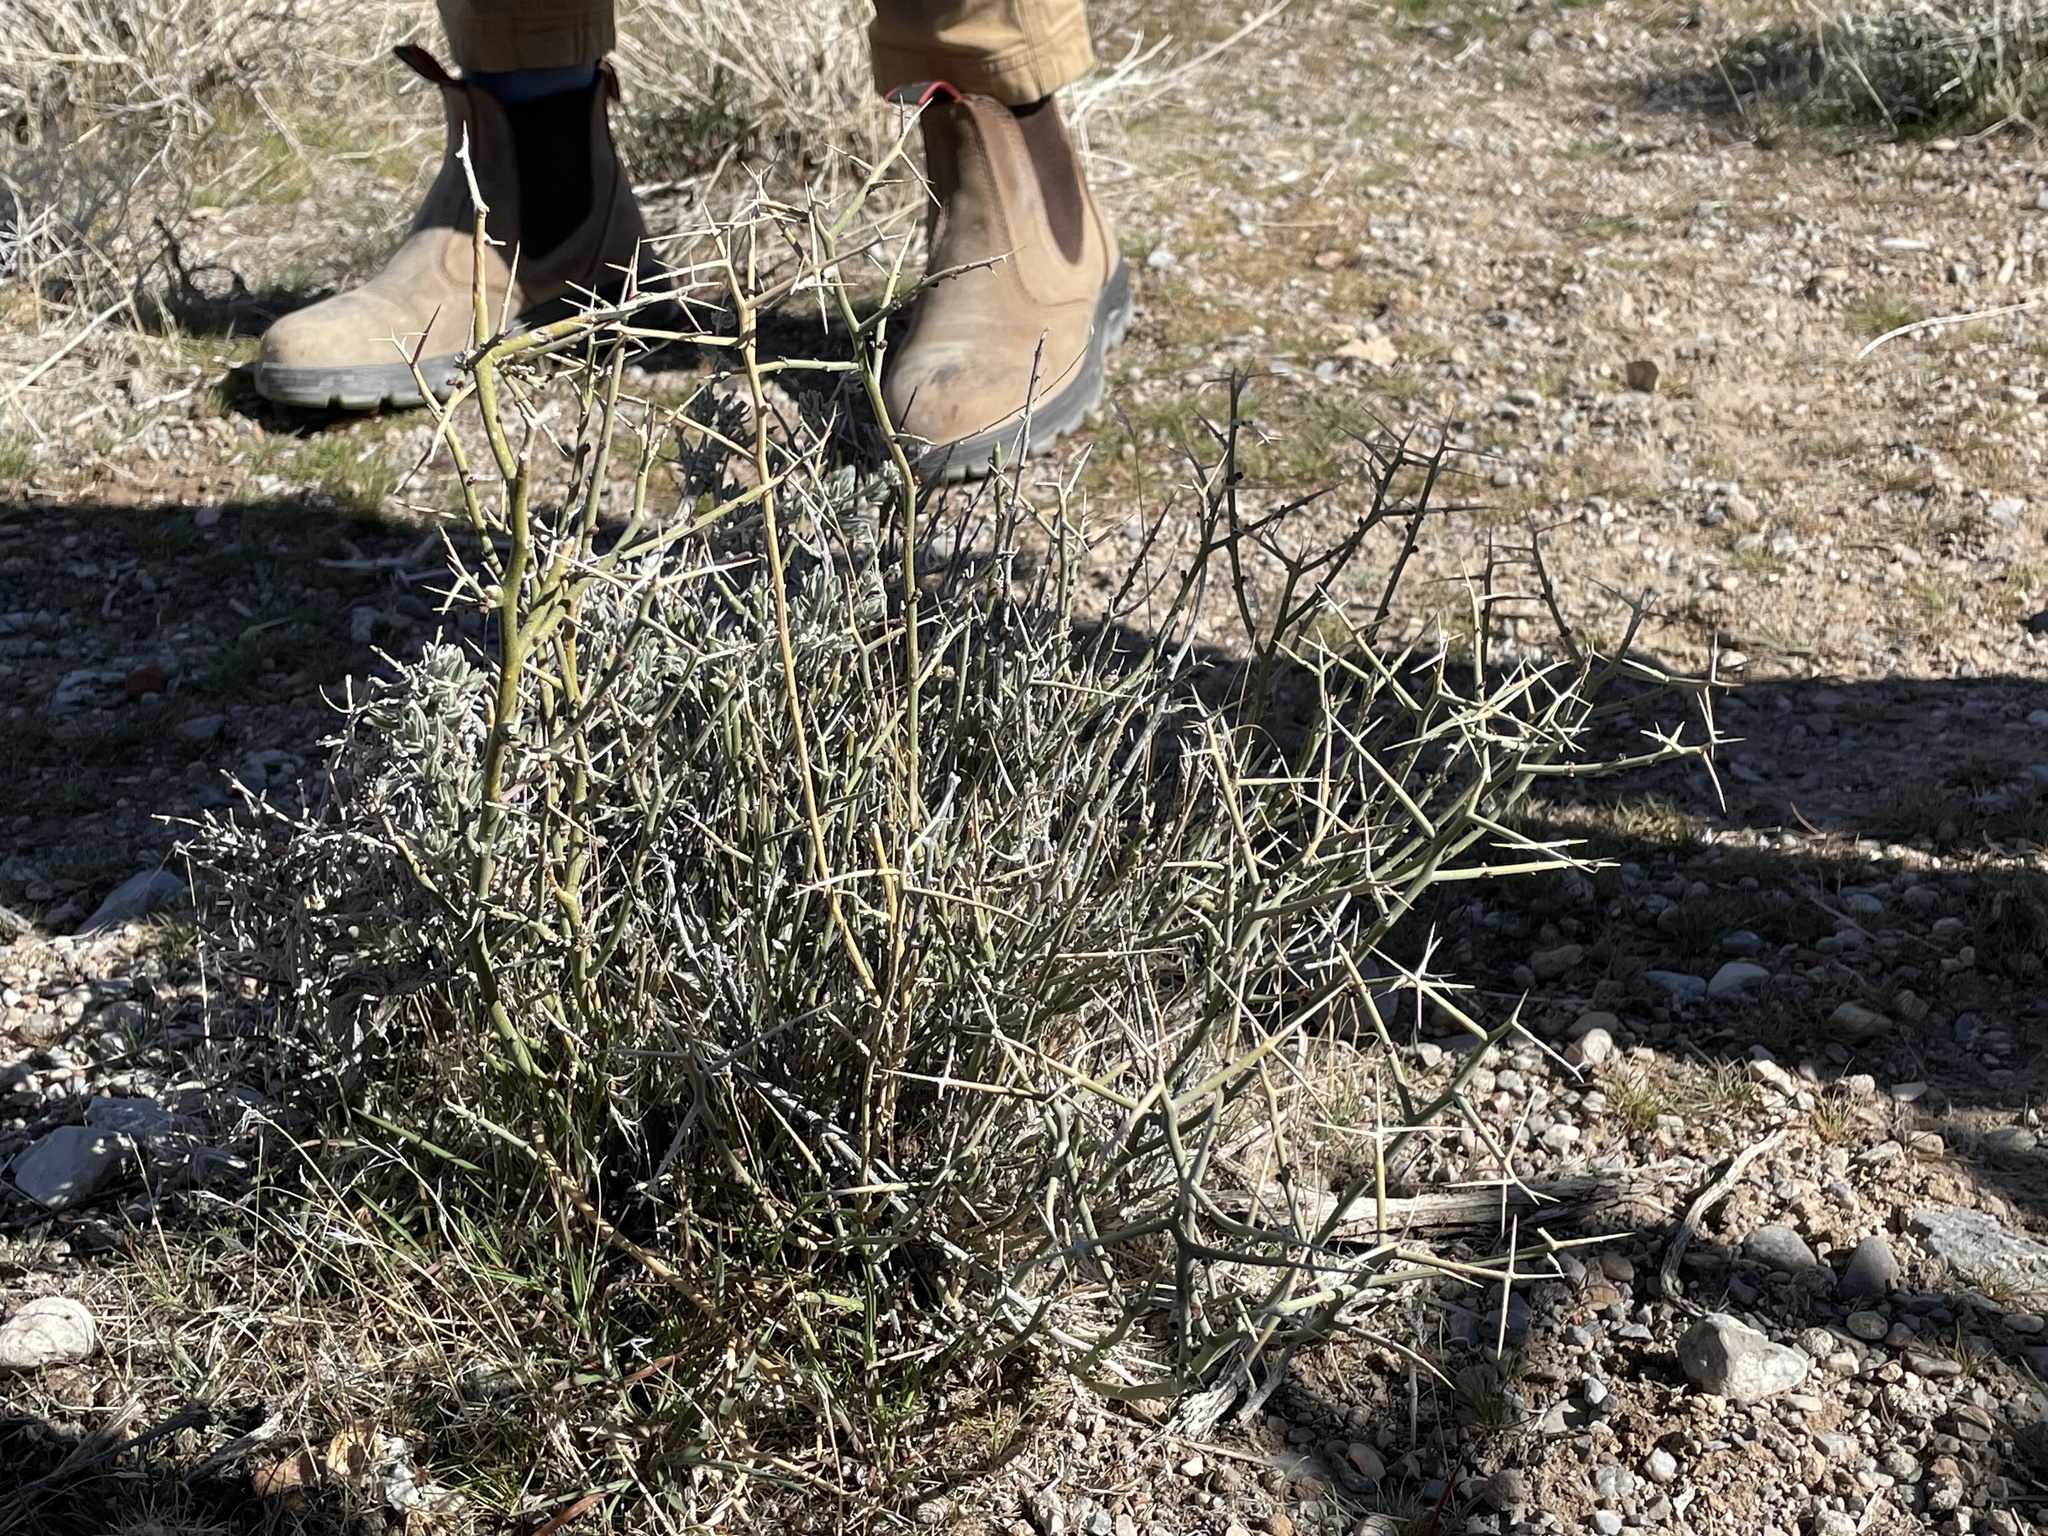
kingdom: Plantae
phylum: Tracheophyta
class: Magnoliopsida
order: Lamiales
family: Oleaceae
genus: Menodora
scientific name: Menodora spinescens
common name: Spiny menodora
